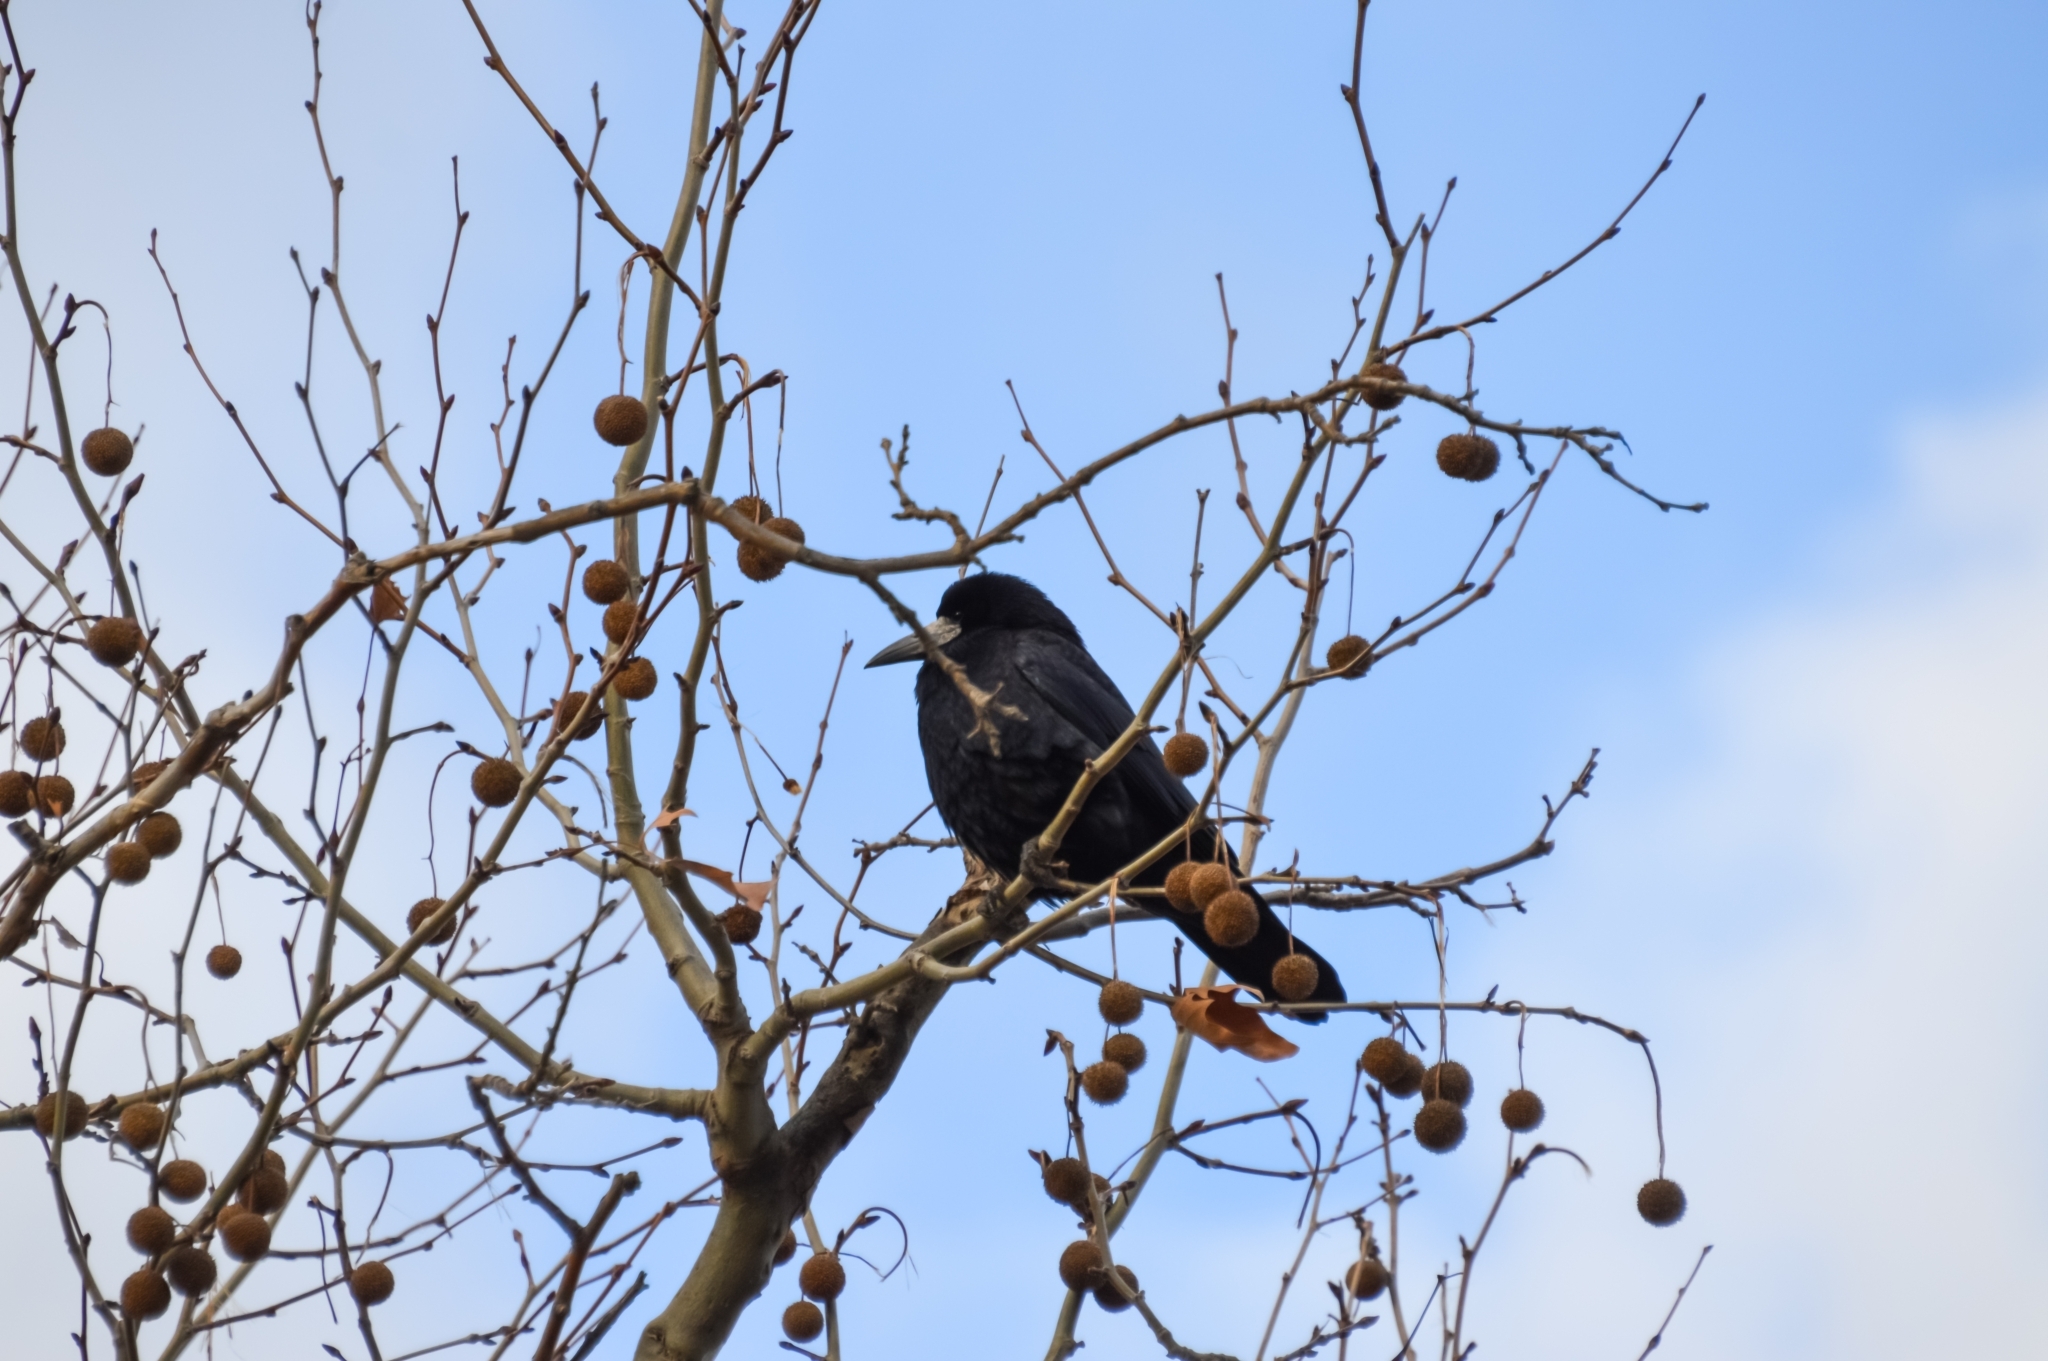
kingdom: Animalia
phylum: Chordata
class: Aves
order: Passeriformes
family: Corvidae
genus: Corvus
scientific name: Corvus frugilegus
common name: Rook
